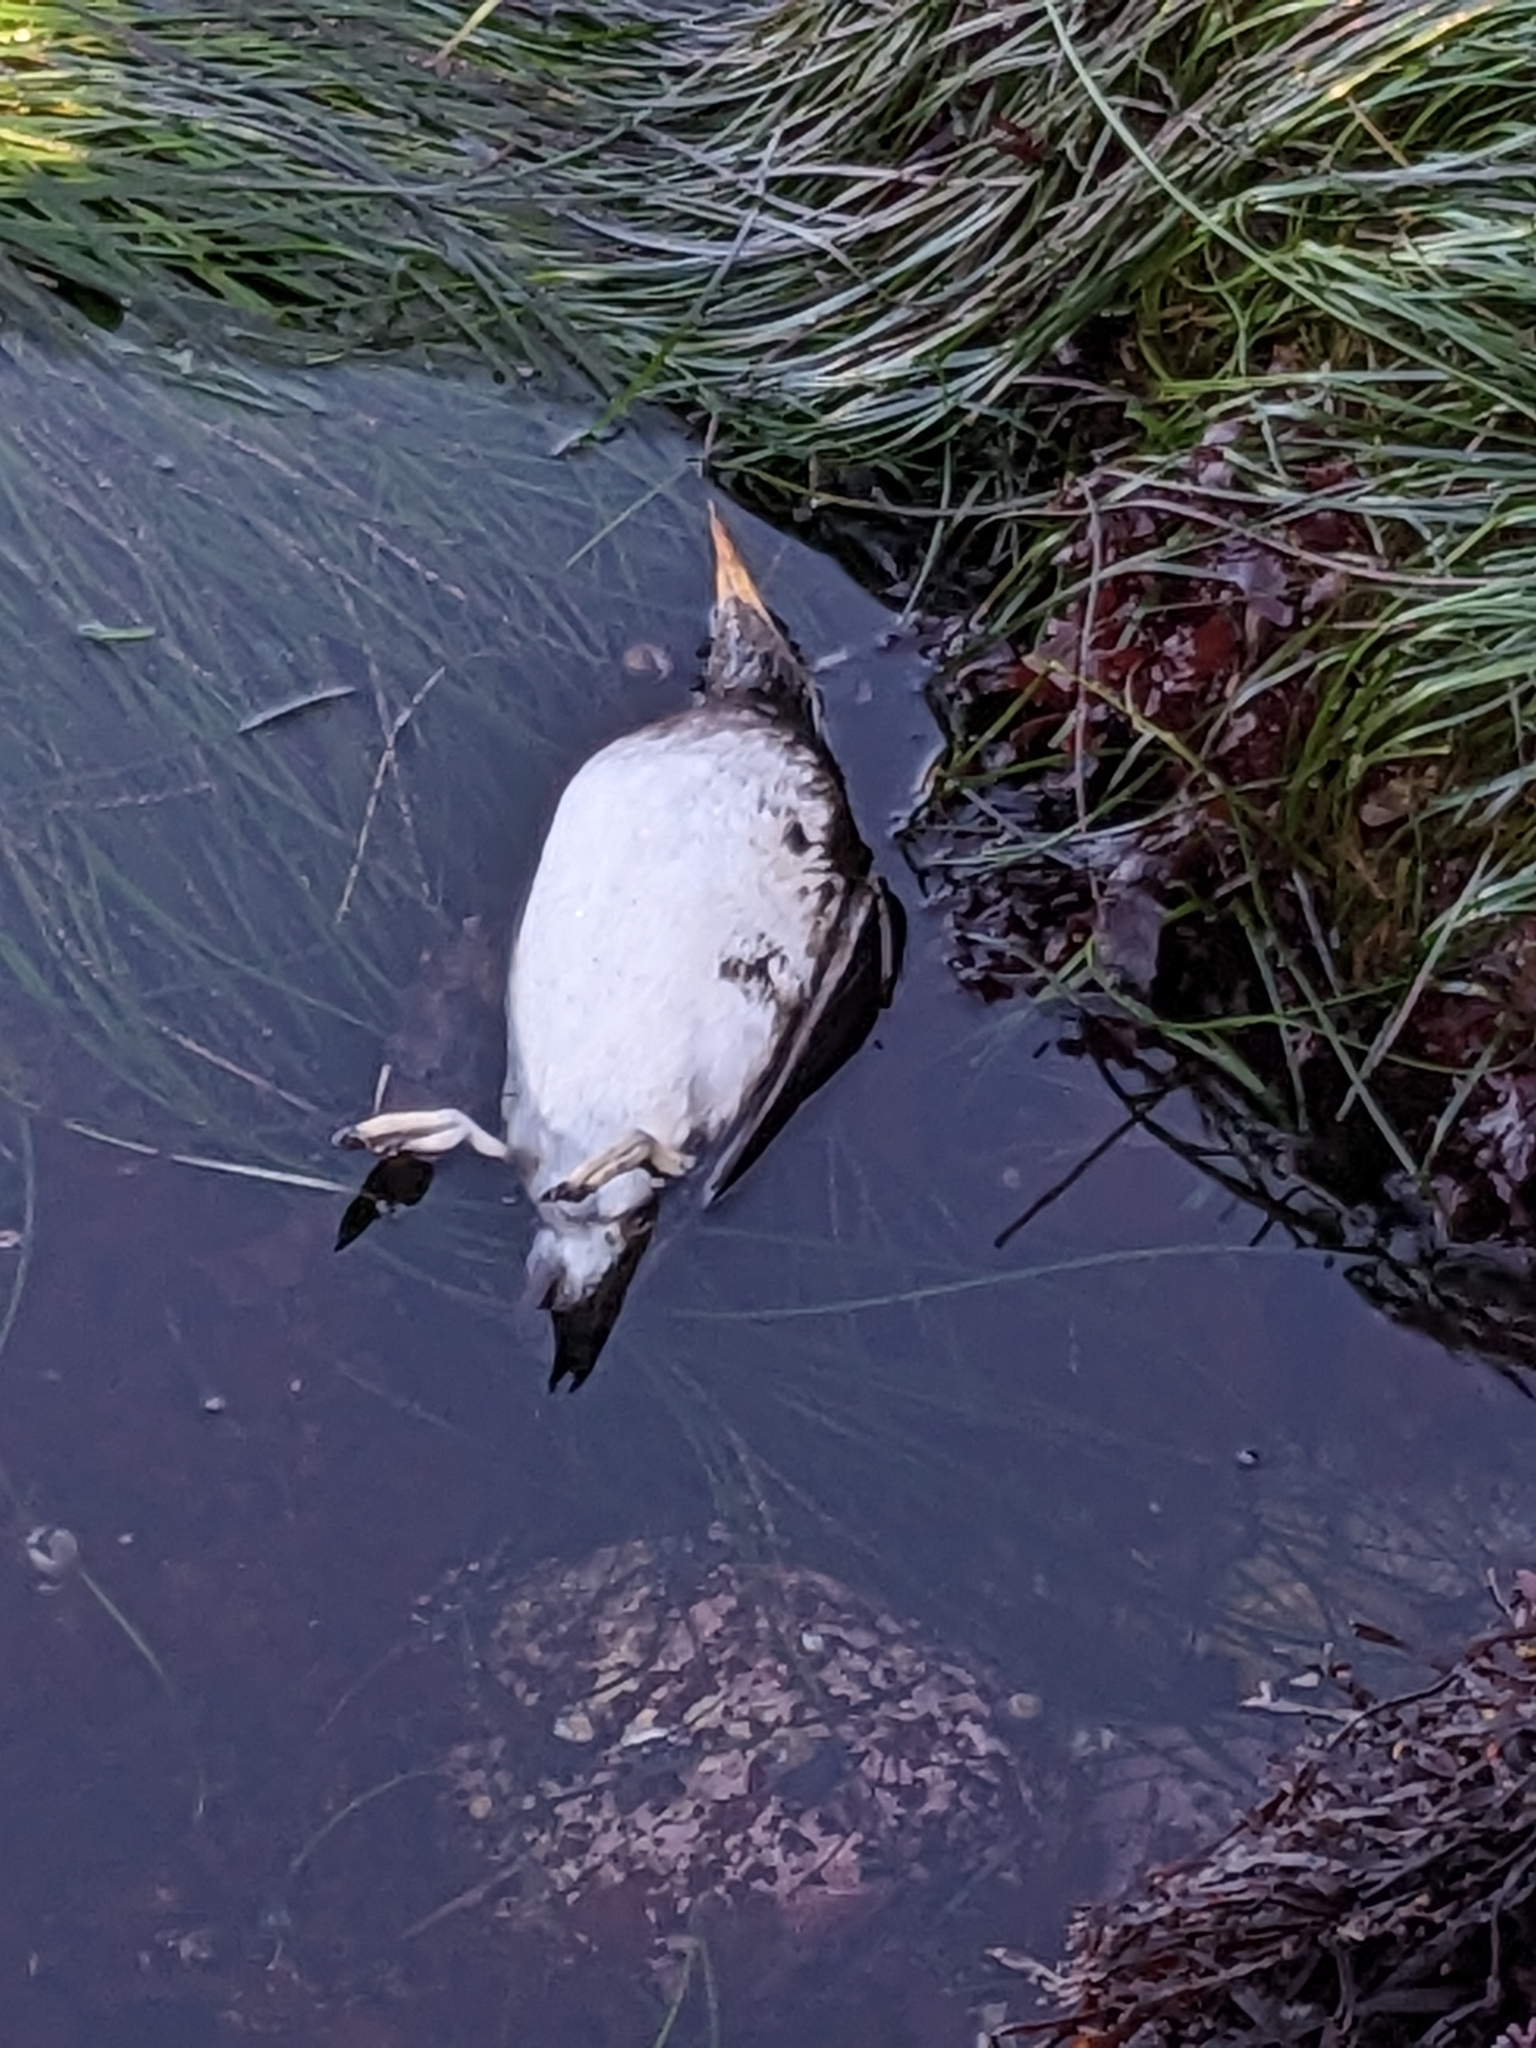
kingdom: Animalia
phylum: Chordata
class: Aves
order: Charadriiformes
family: Alcidae
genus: Cerorhinca
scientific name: Cerorhinca monocerata
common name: Rhinoceros auklet
